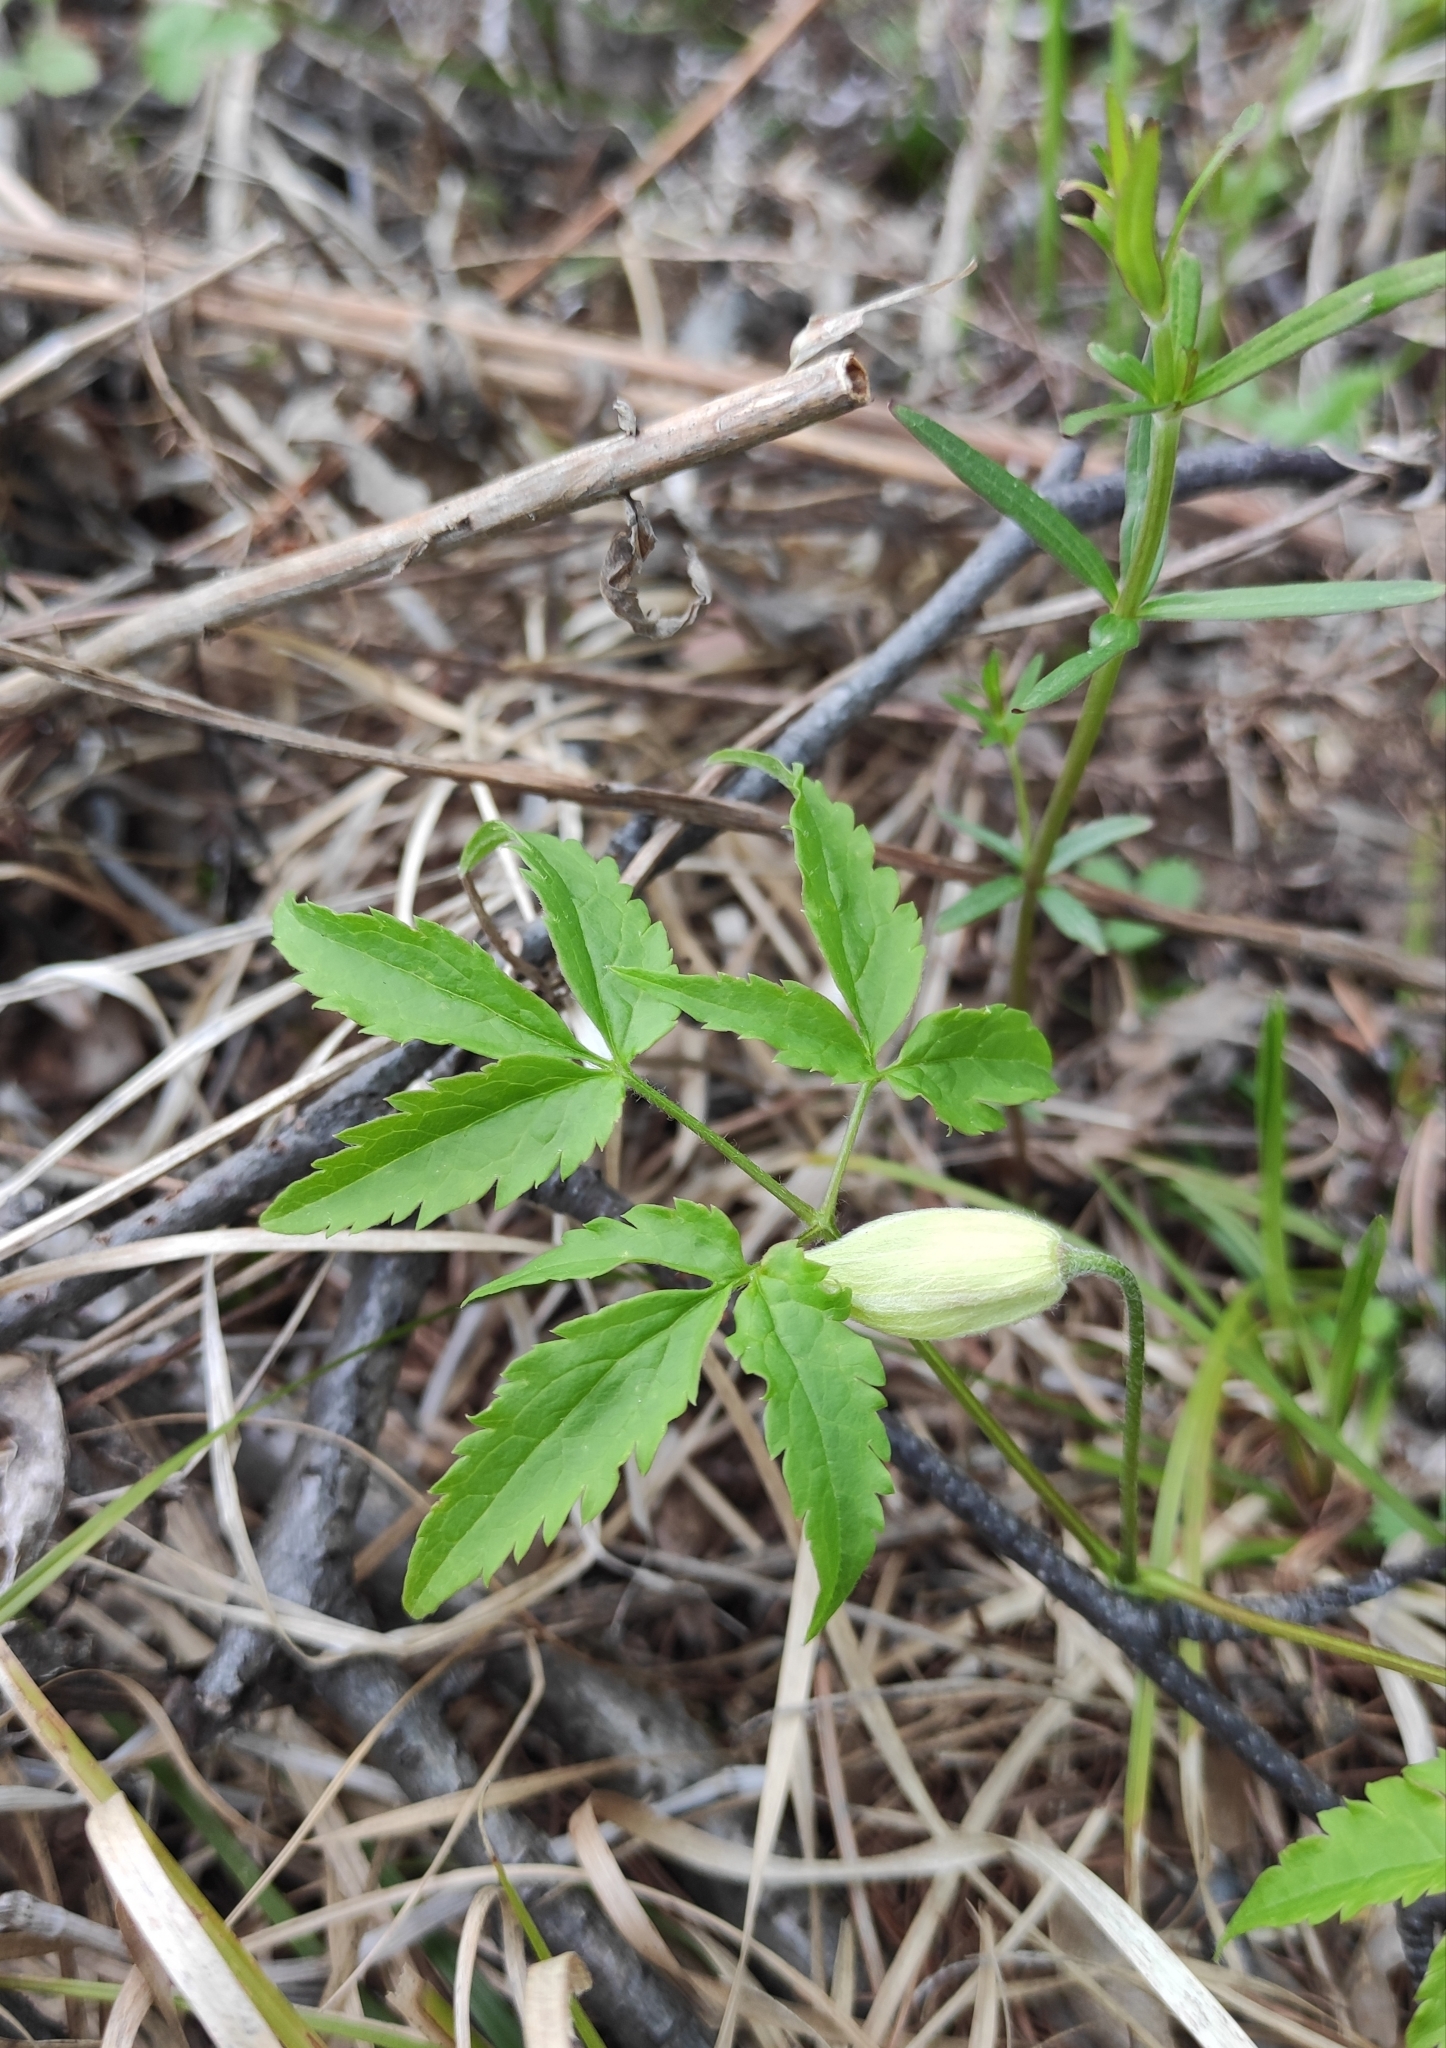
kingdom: Plantae
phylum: Tracheophyta
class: Magnoliopsida
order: Ranunculales
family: Ranunculaceae
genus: Clematis
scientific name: Clematis sibirica
